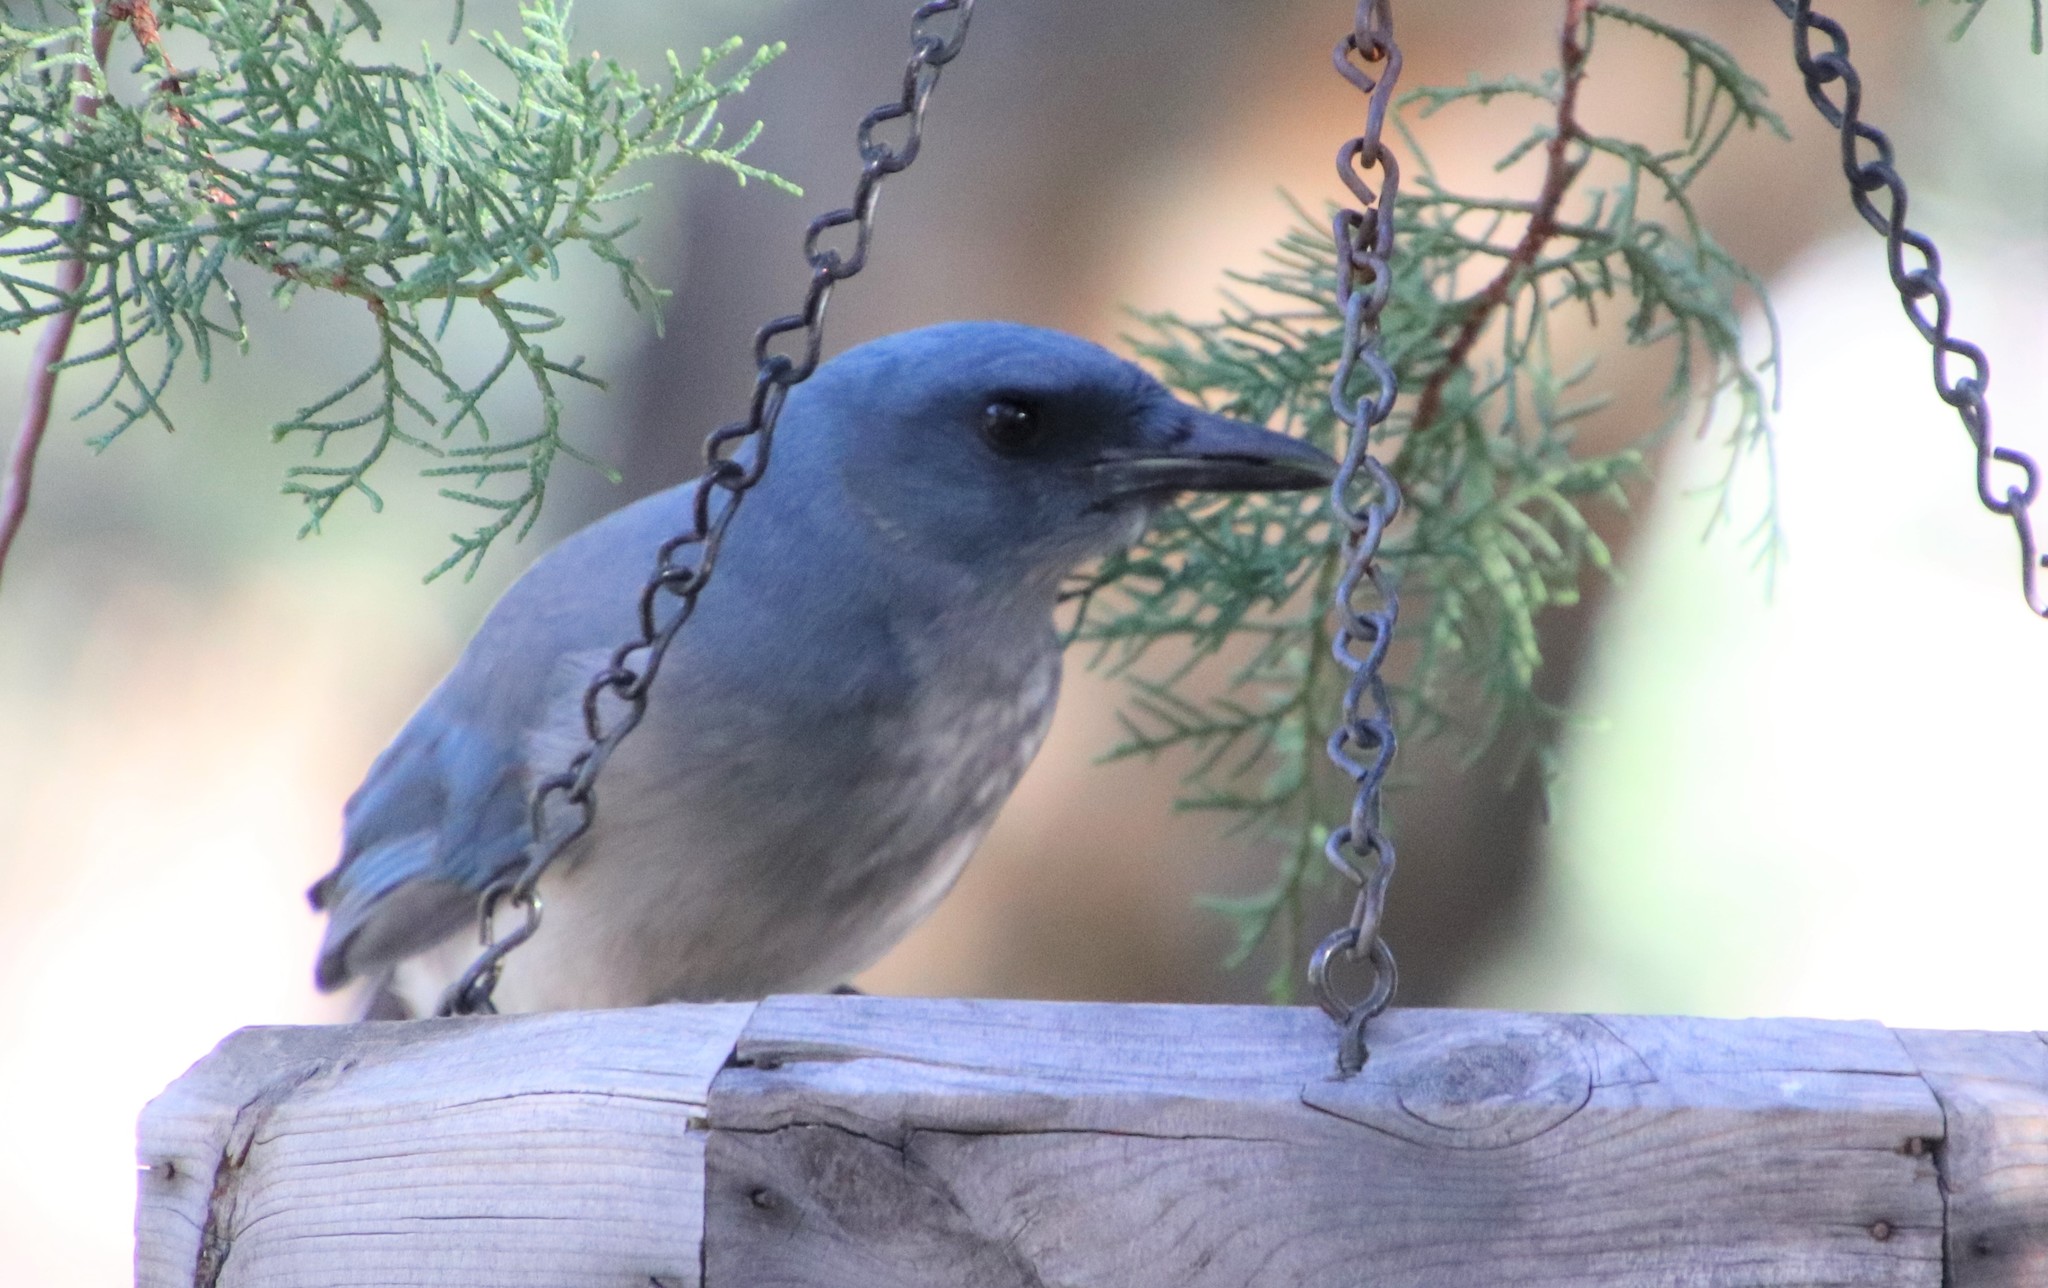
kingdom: Animalia
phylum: Chordata
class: Aves
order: Passeriformes
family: Corvidae
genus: Aphelocoma
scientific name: Aphelocoma wollweberi
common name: Mexican jay
